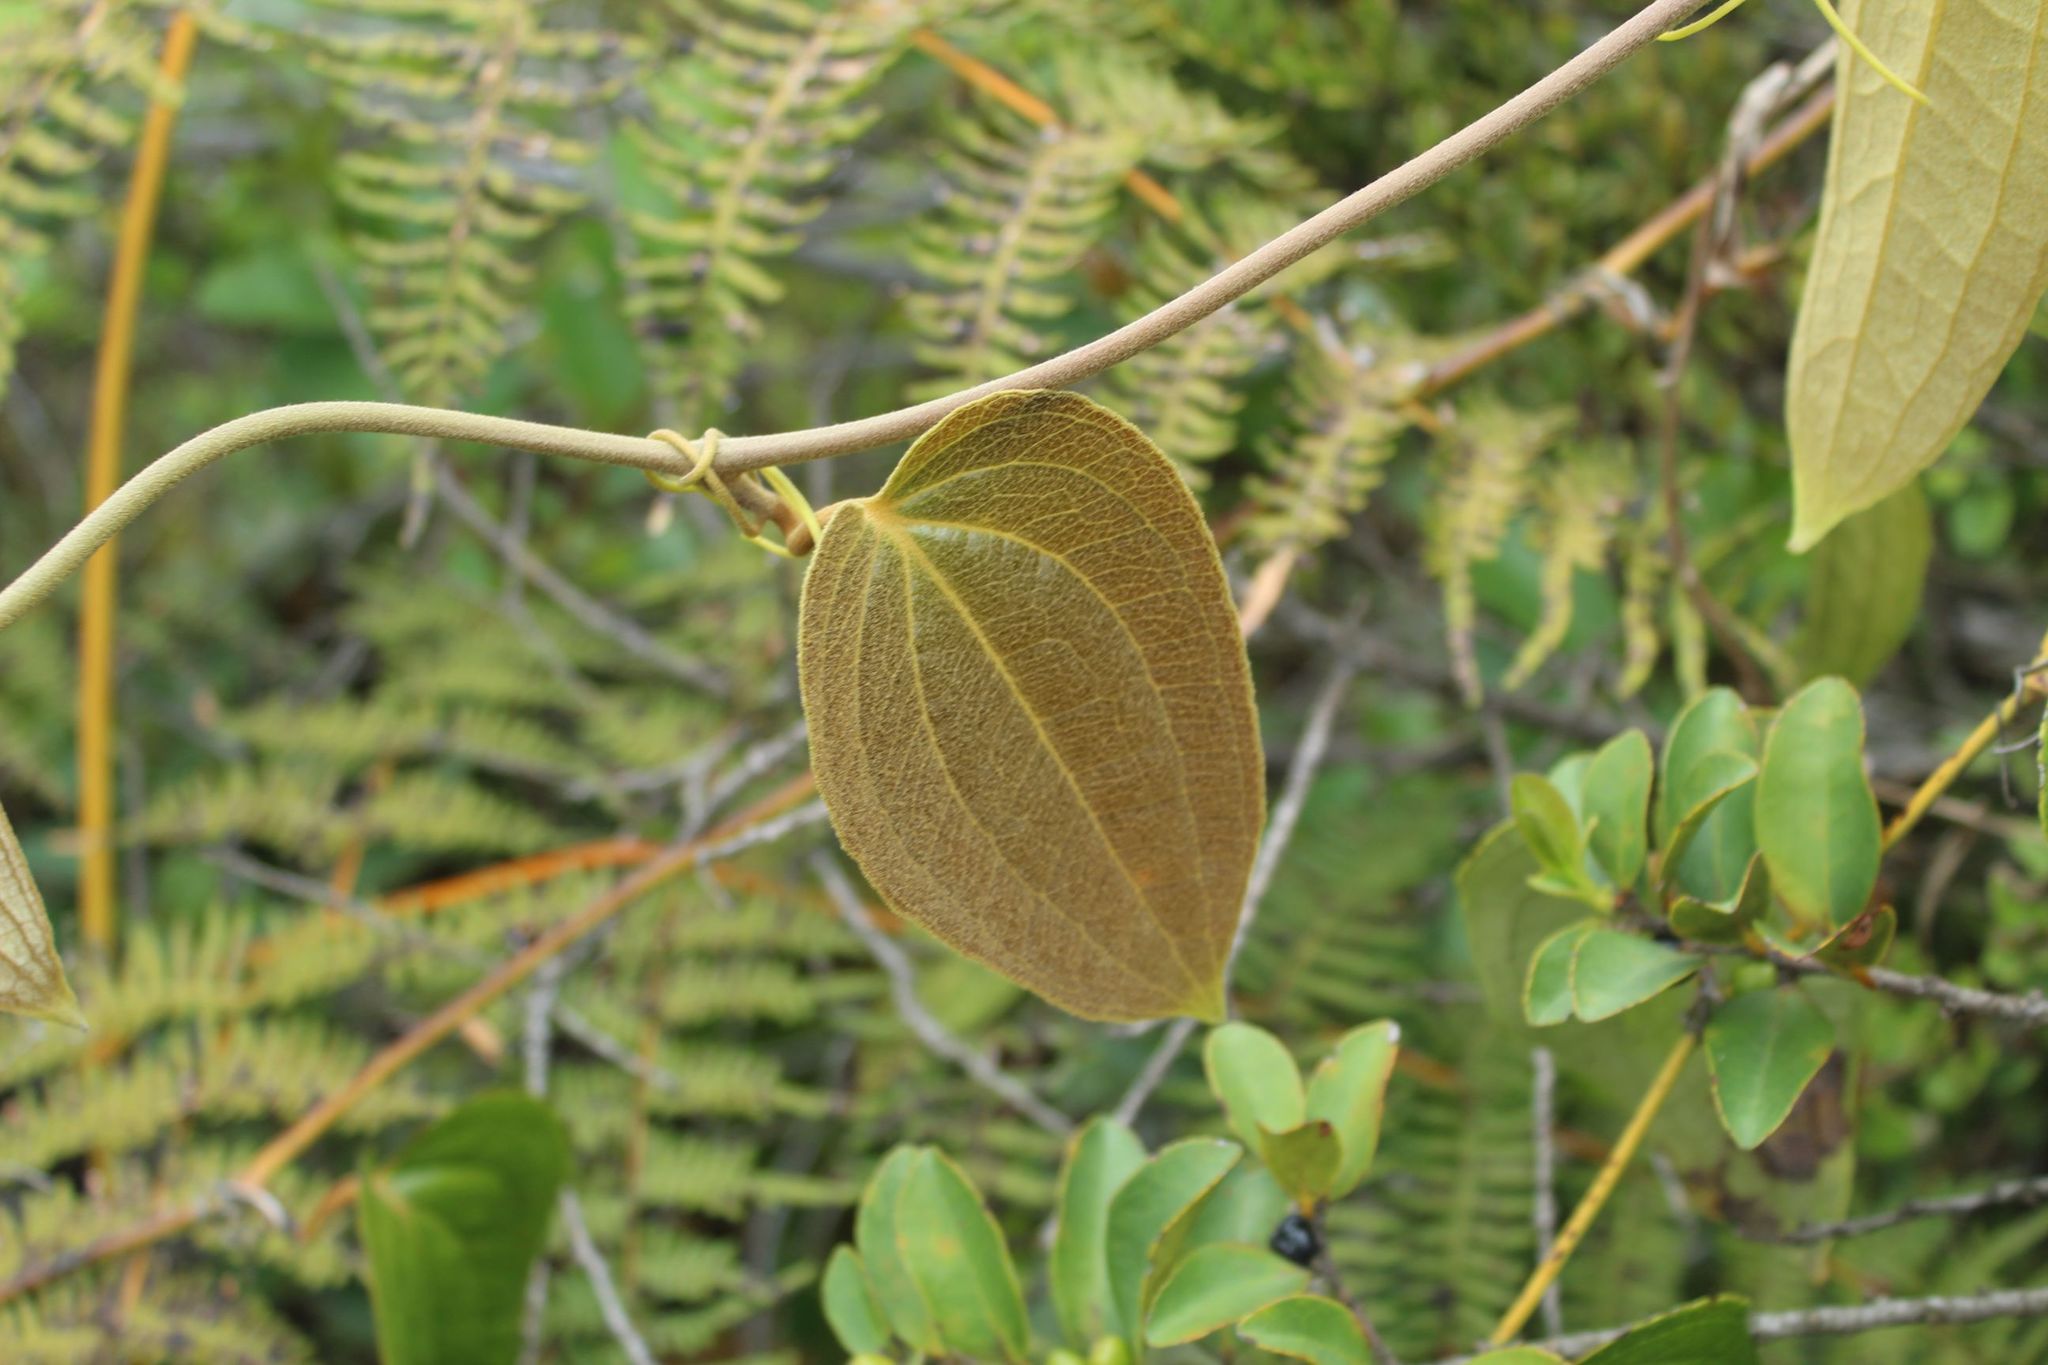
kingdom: Plantae
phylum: Tracheophyta
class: Liliopsida
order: Liliales
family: Smilacaceae
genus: Smilax
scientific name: Smilax tomentosa
